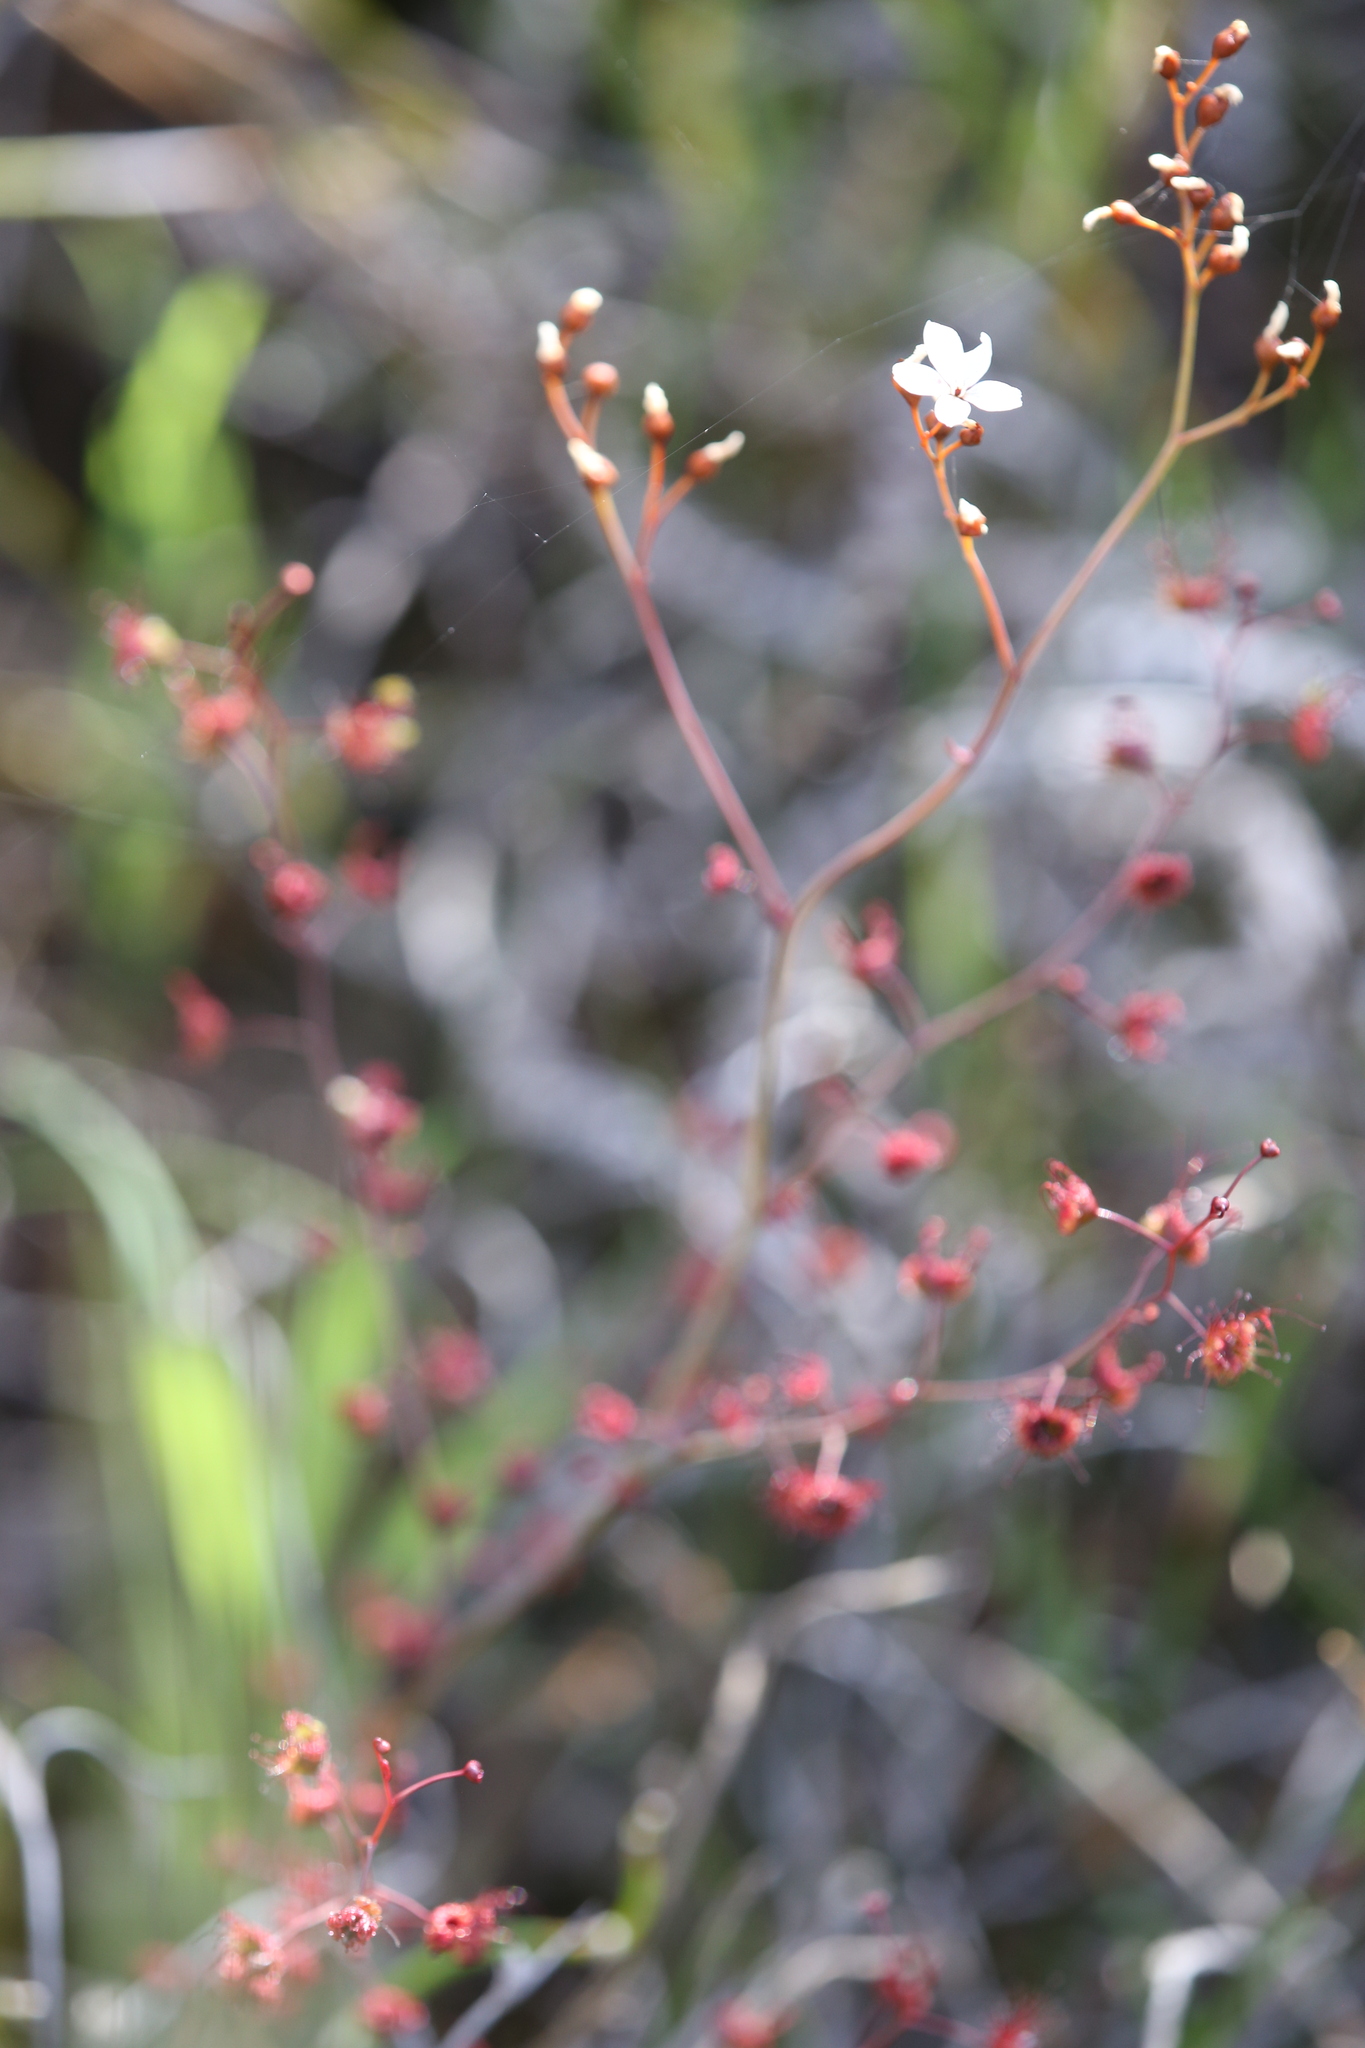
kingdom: Plantae
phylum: Tracheophyta
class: Magnoliopsida
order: Caryophyllales
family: Droseraceae
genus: Drosera
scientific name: Drosera gigantea
